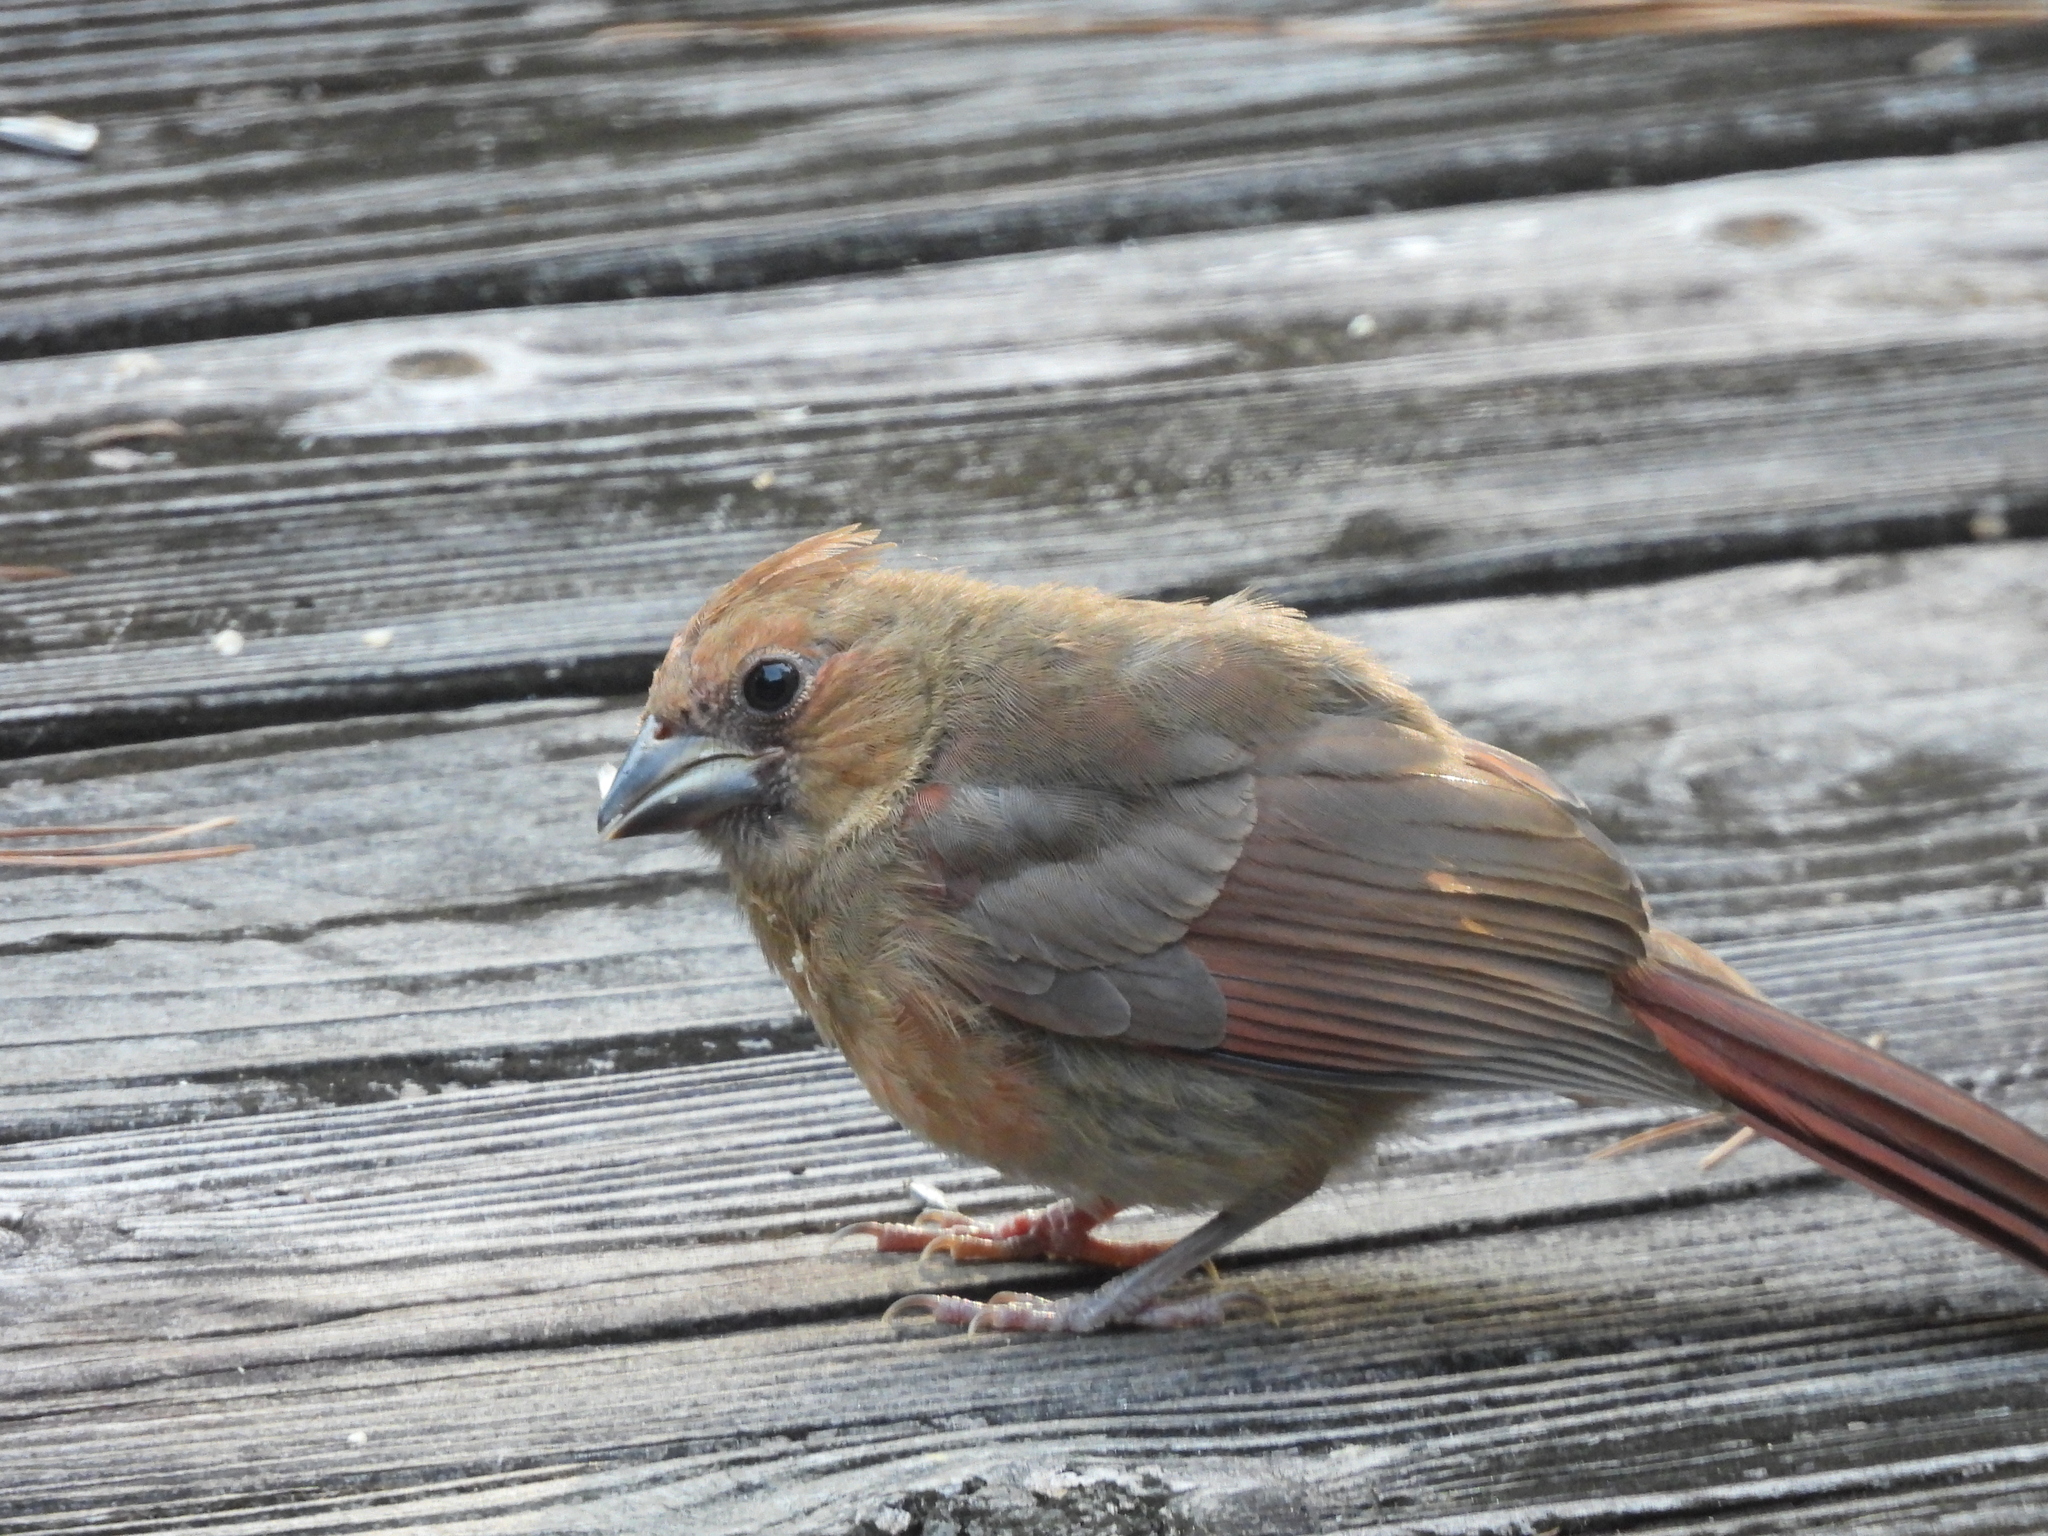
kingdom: Animalia
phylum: Chordata
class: Aves
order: Passeriformes
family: Cardinalidae
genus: Cardinalis
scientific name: Cardinalis cardinalis
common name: Northern cardinal
